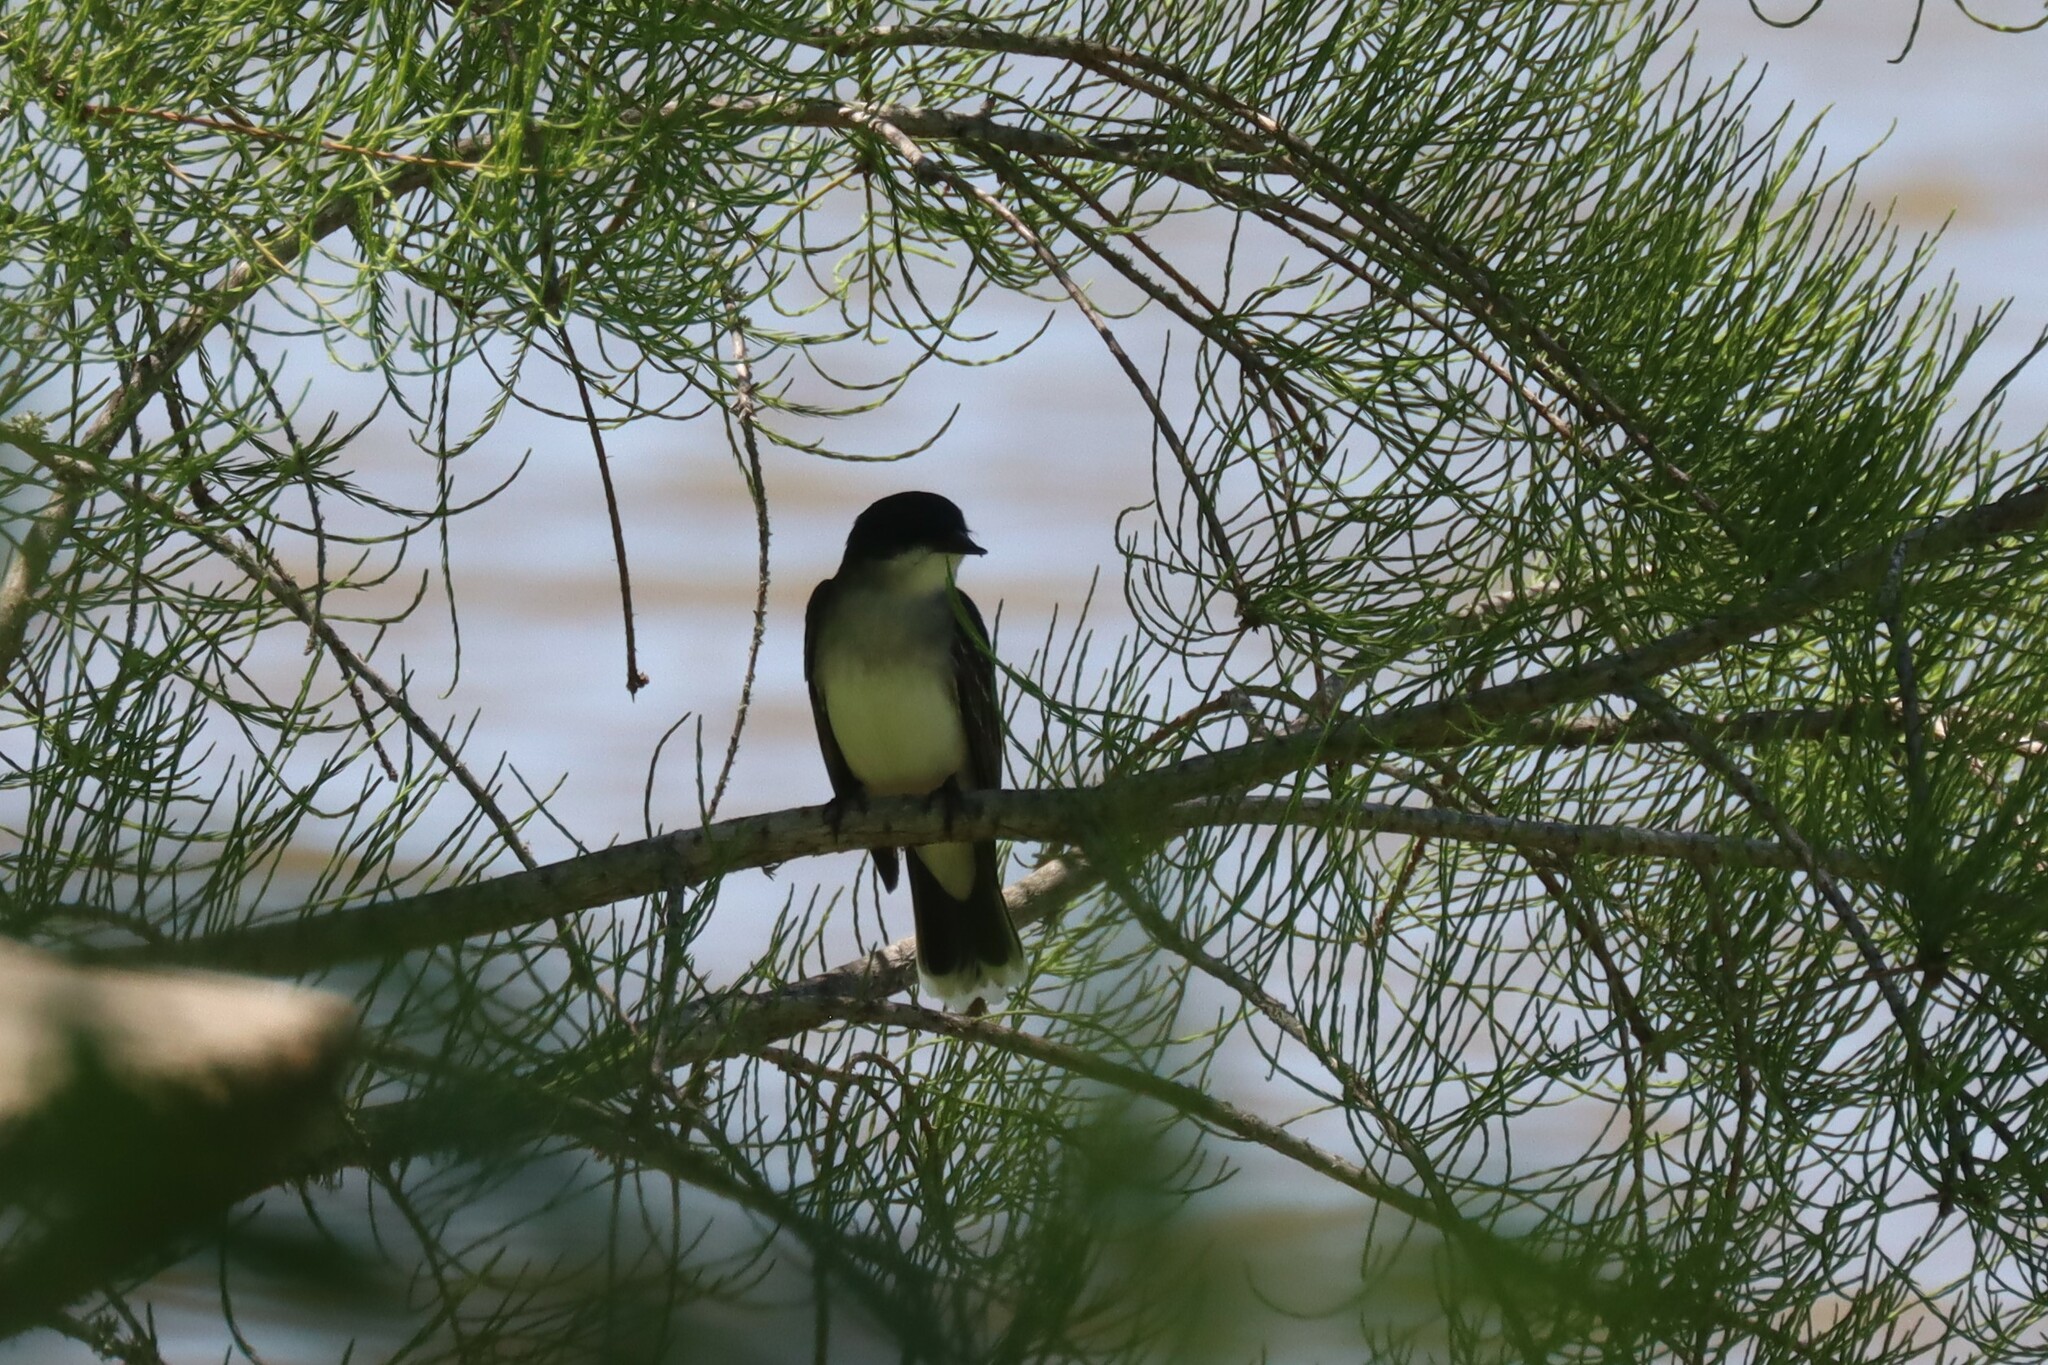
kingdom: Animalia
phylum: Chordata
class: Aves
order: Passeriformes
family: Tyrannidae
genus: Tyrannus
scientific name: Tyrannus tyrannus
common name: Eastern kingbird
